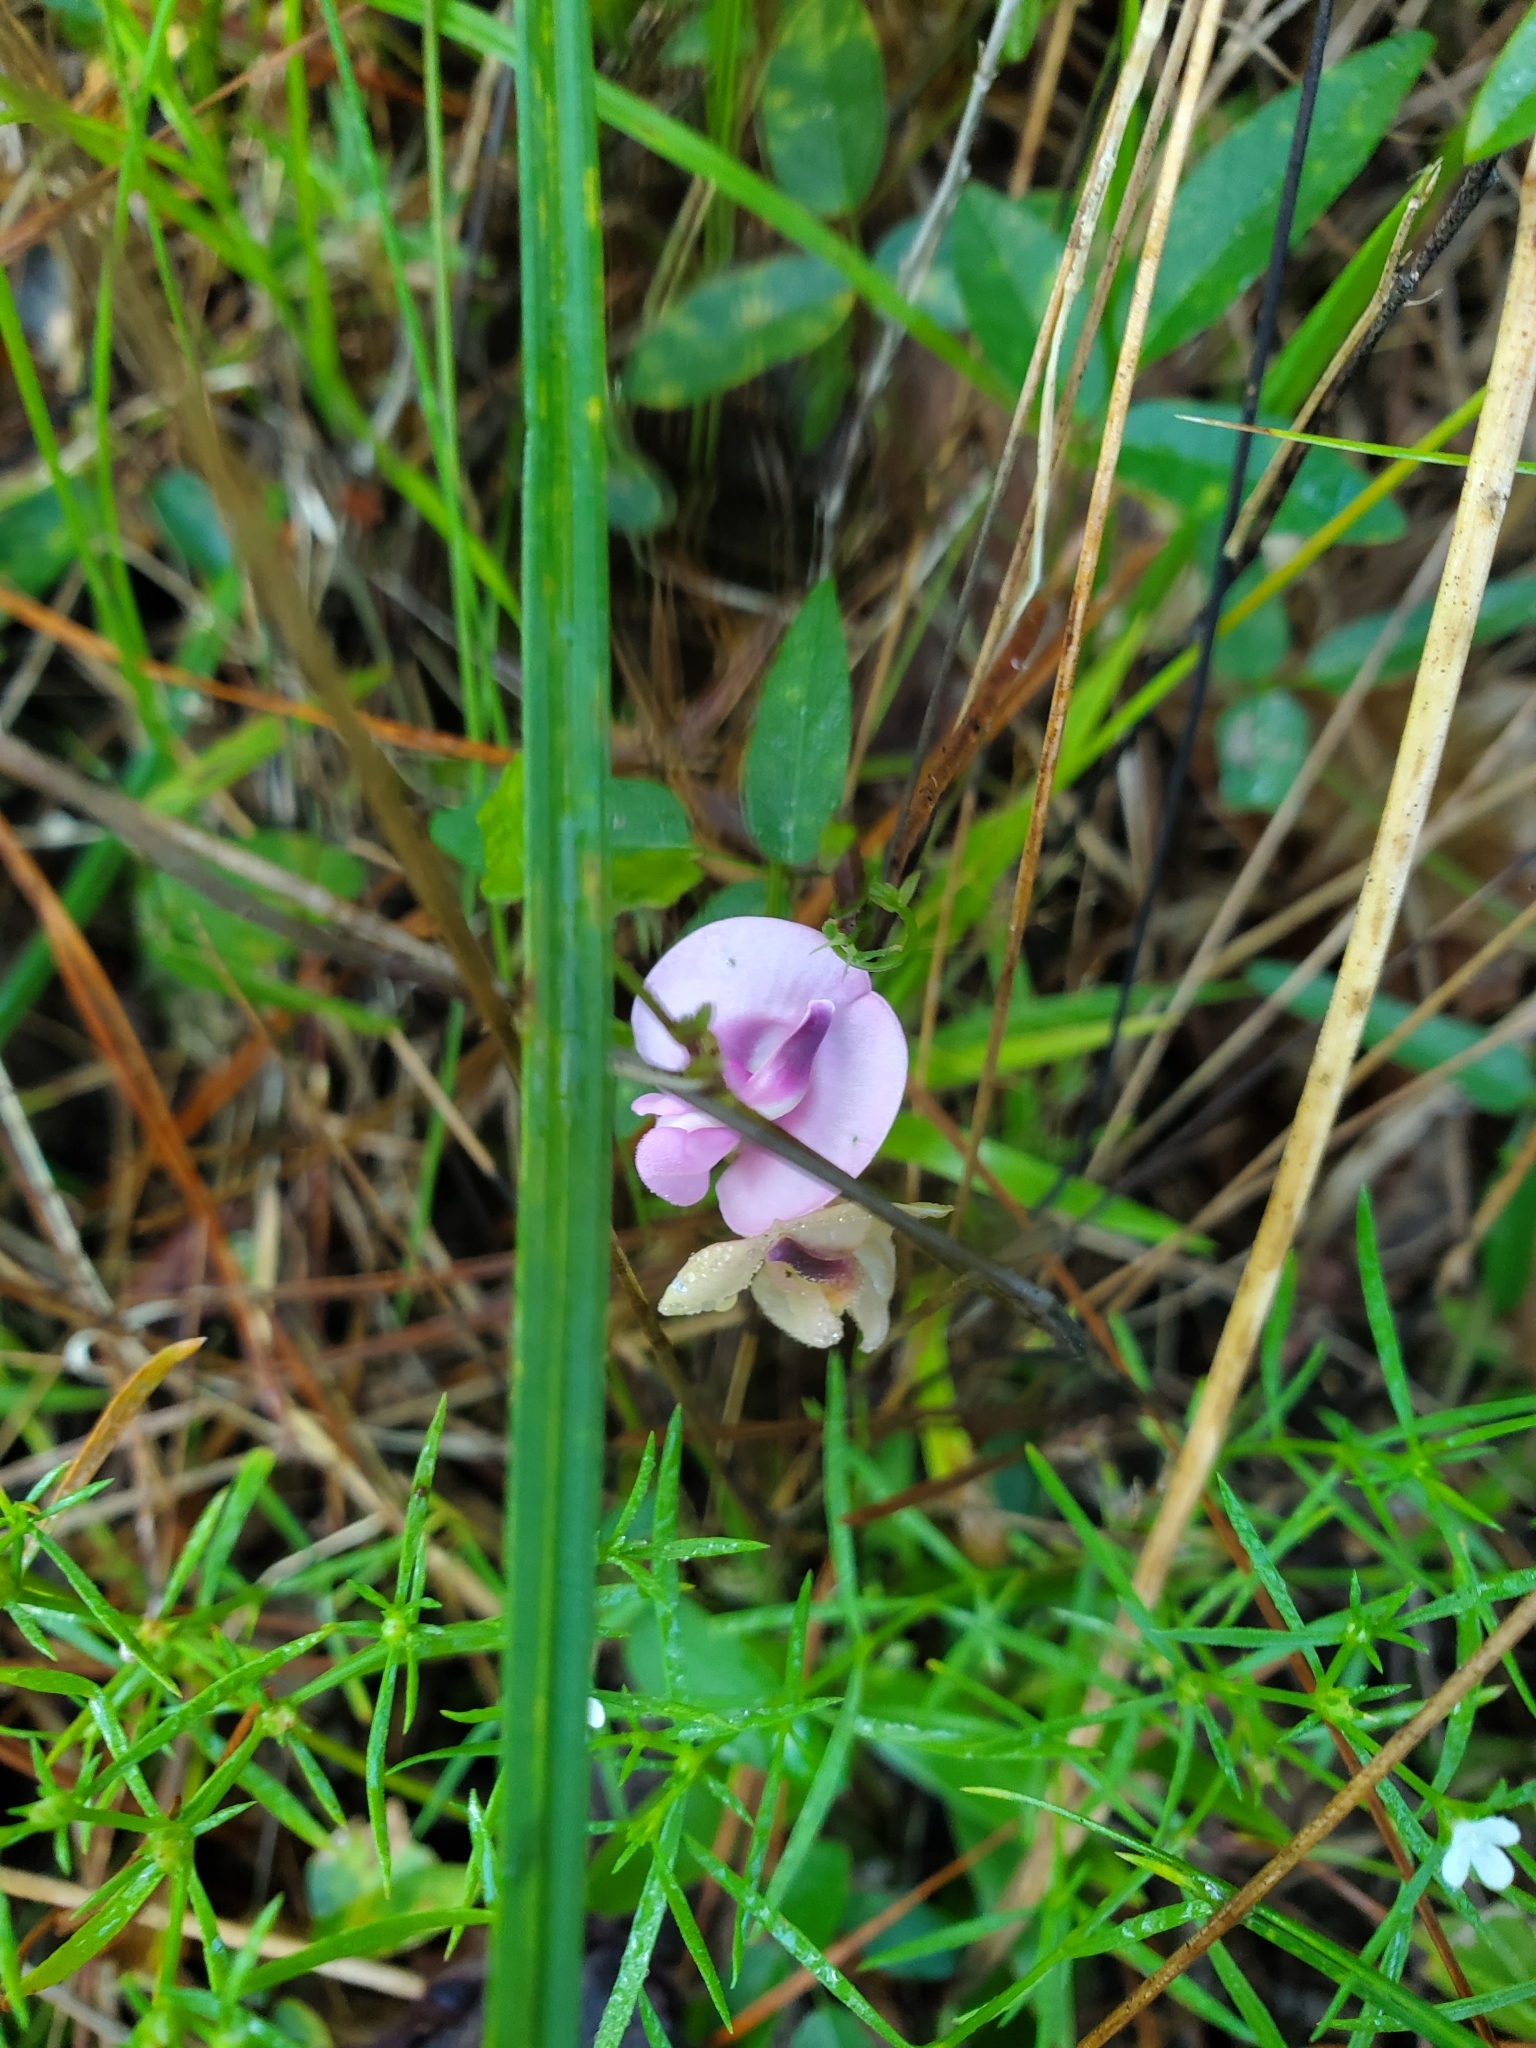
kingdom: Plantae
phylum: Tracheophyta
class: Magnoliopsida
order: Fabales
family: Fabaceae
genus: Strophostyles
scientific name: Strophostyles umbellata
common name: Perennial wild bean
